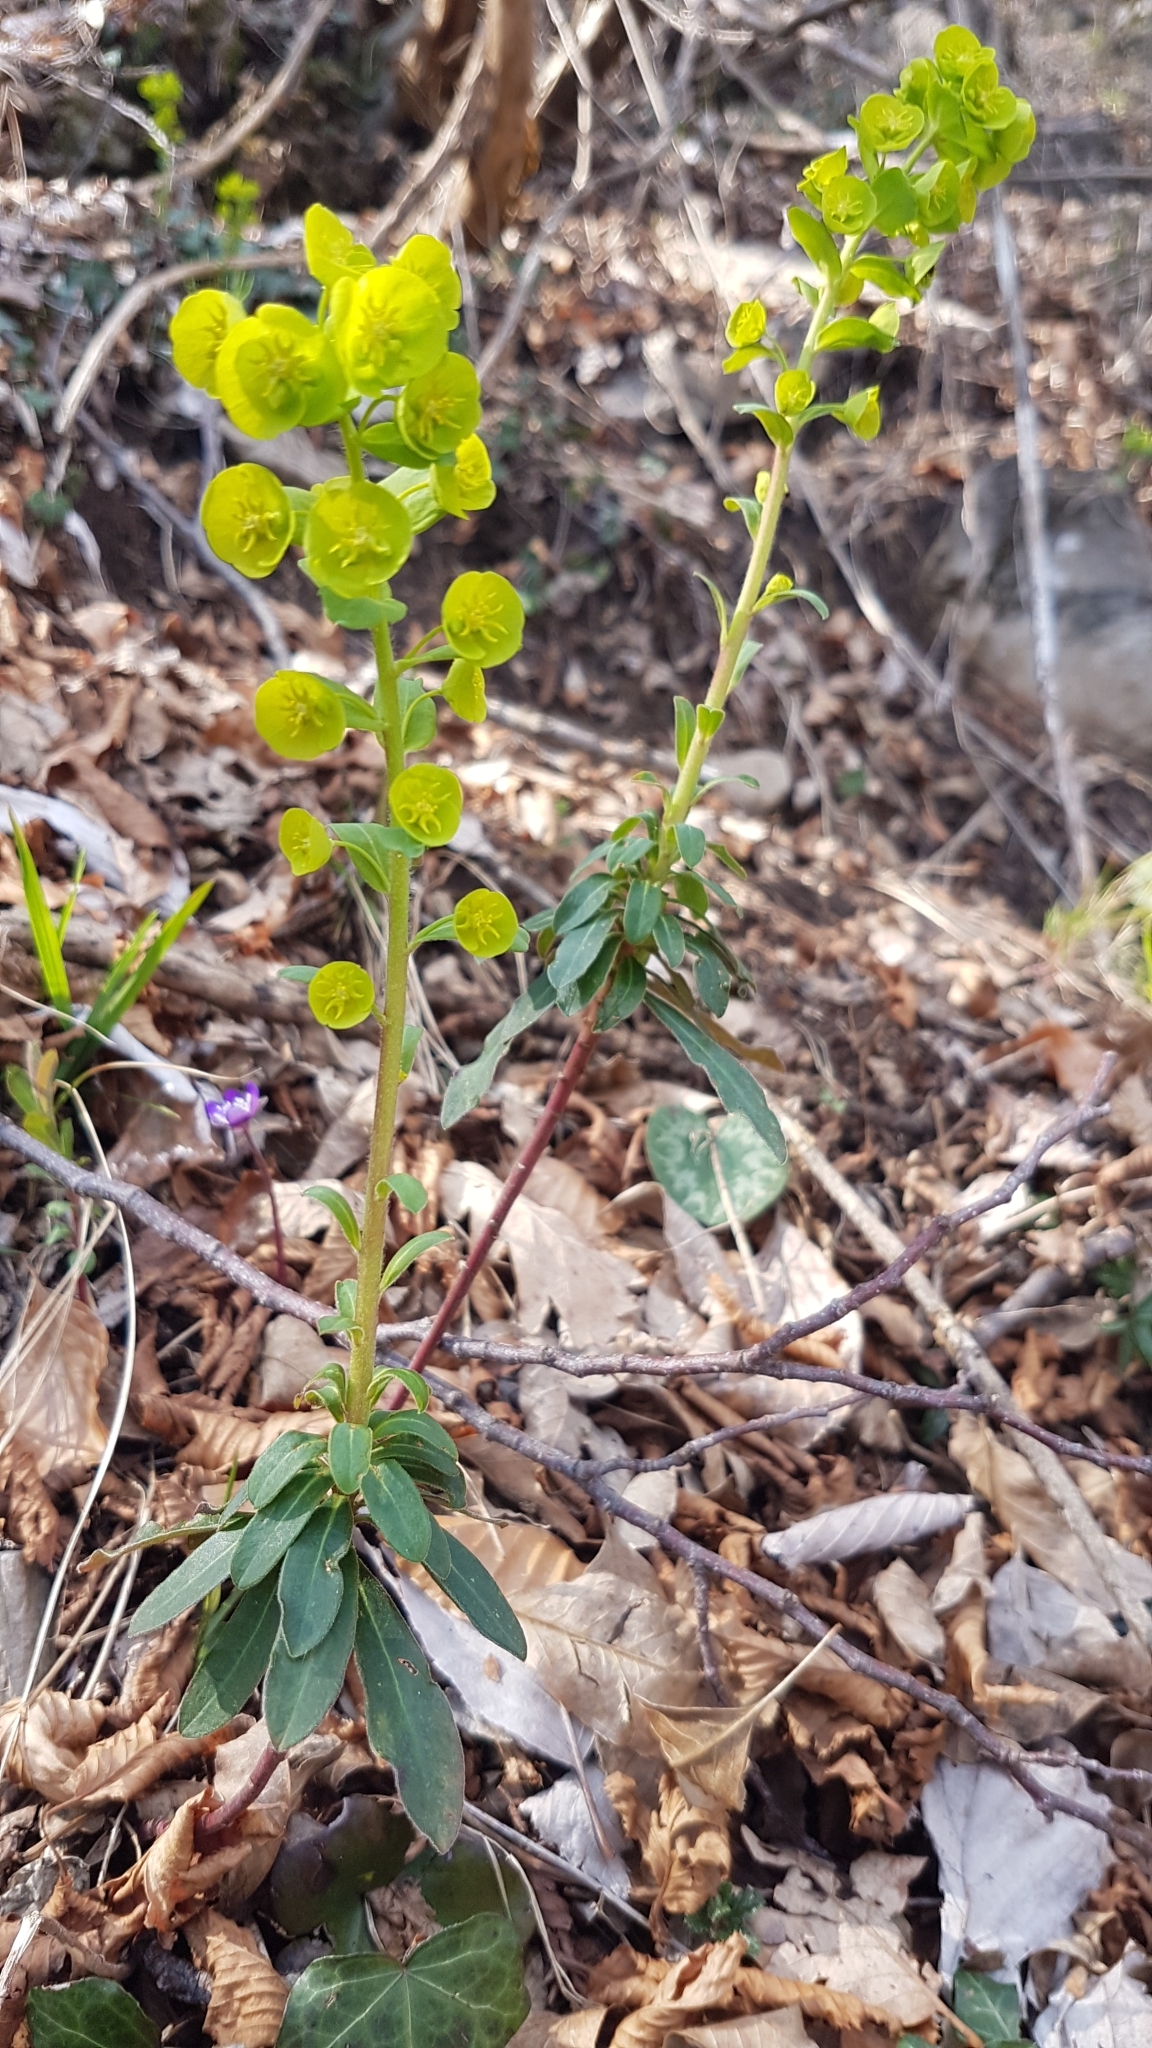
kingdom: Plantae
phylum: Tracheophyta
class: Magnoliopsida
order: Malpighiales
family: Euphorbiaceae
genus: Euphorbia
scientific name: Euphorbia amygdaloides
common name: Wood spurge
